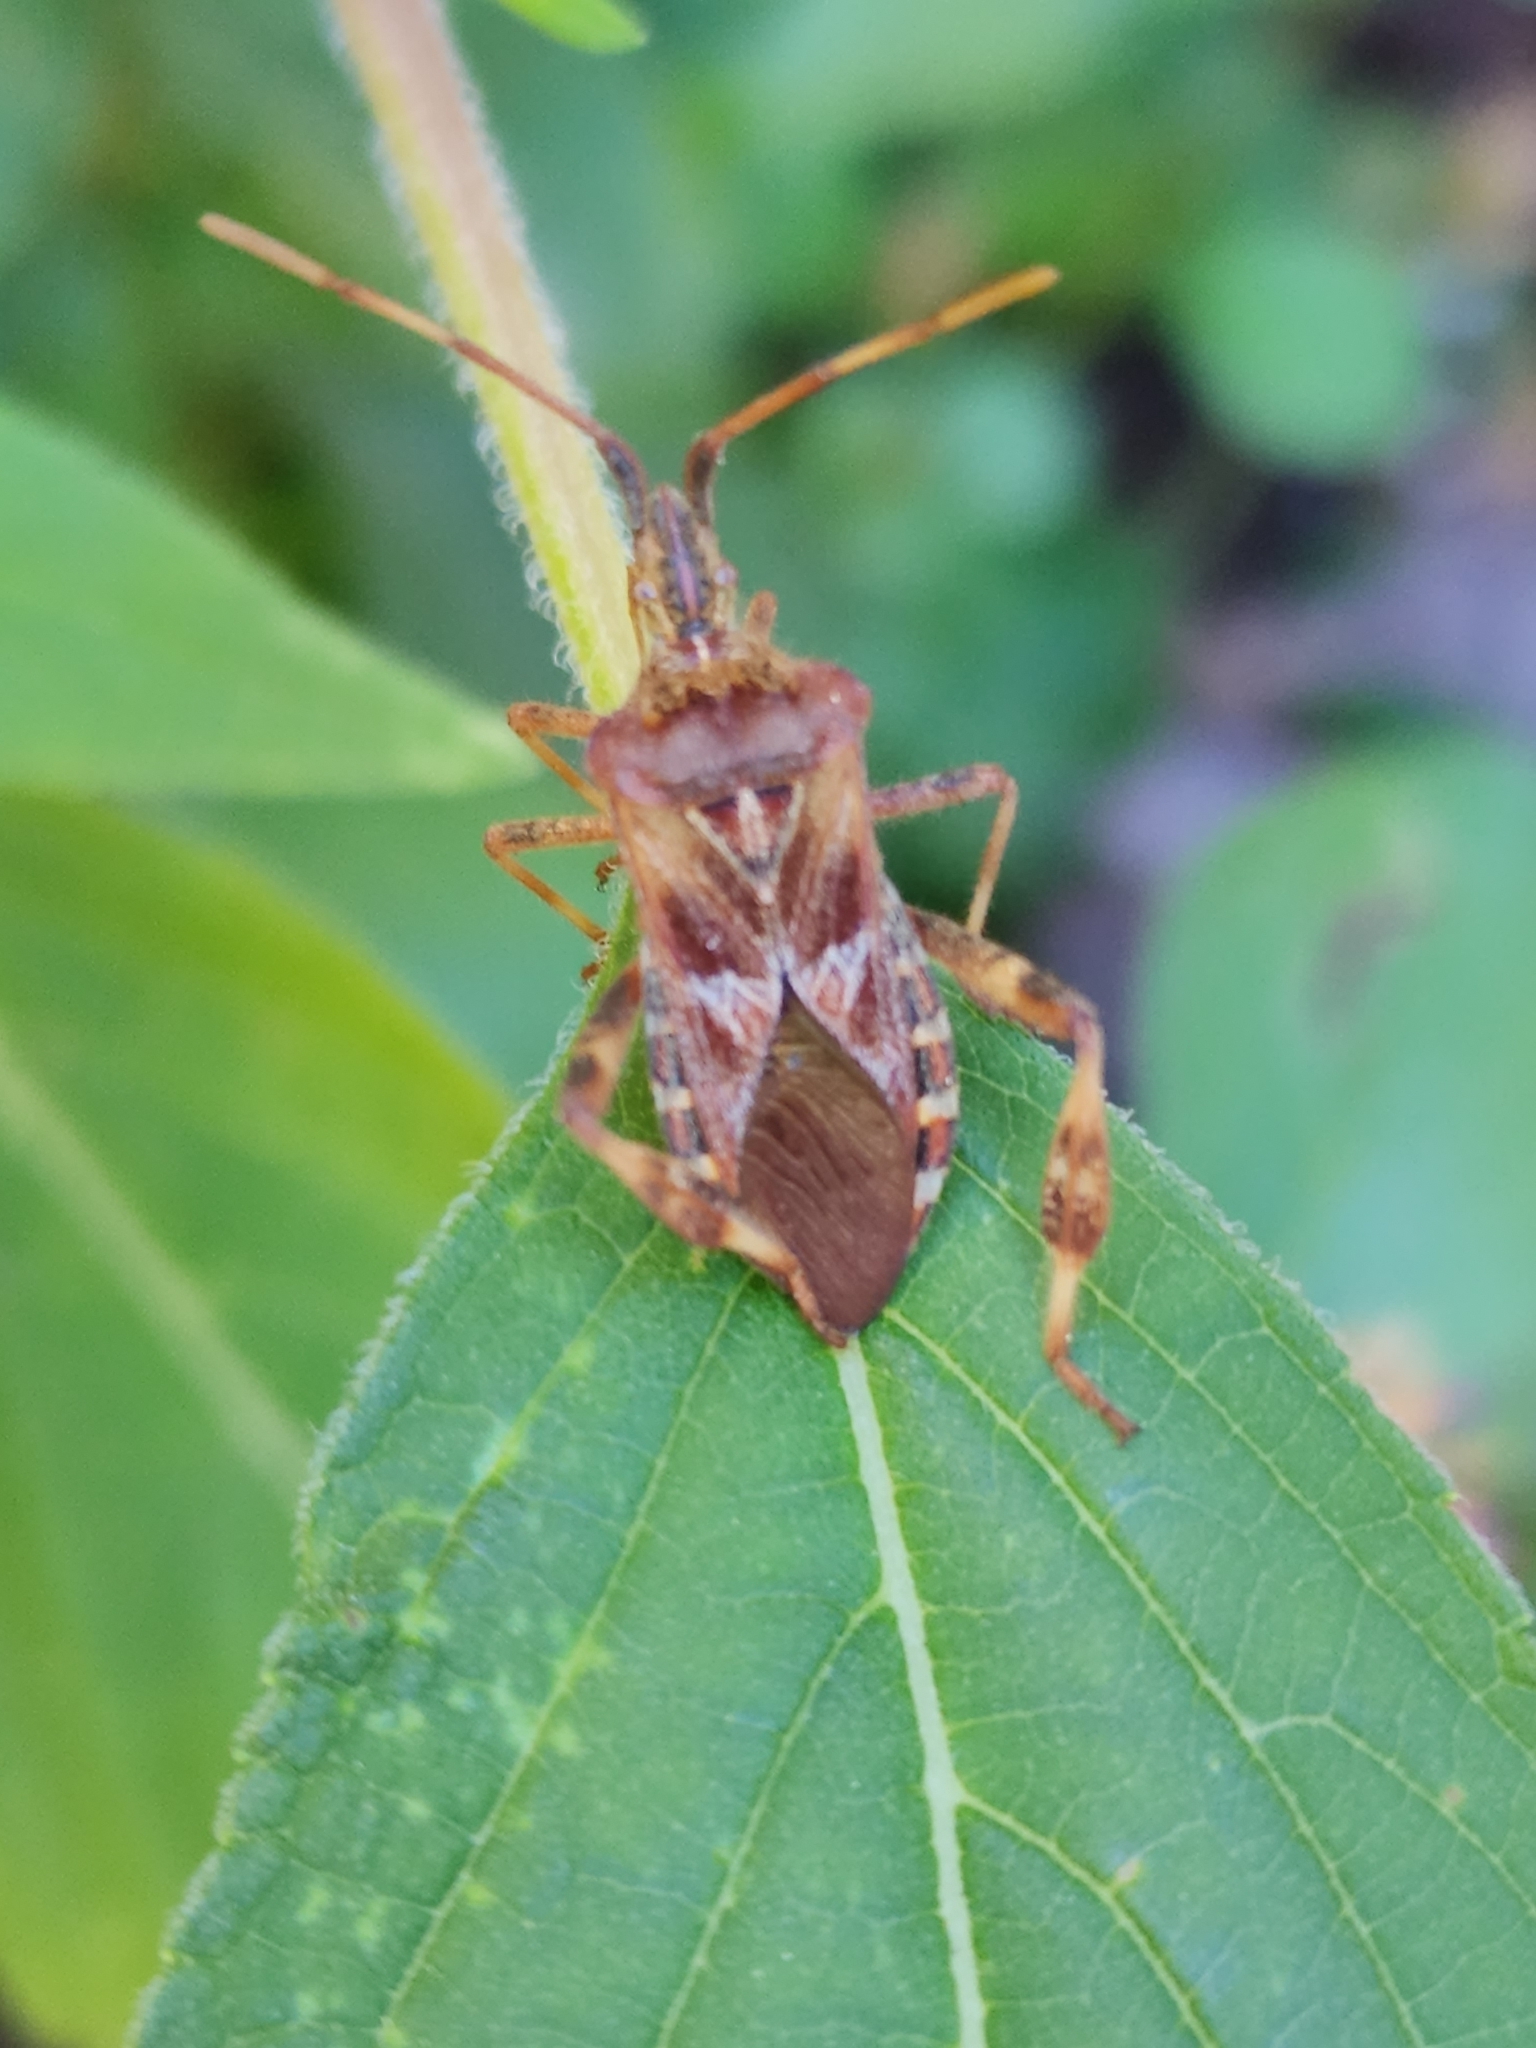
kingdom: Animalia
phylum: Arthropoda
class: Insecta
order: Hemiptera
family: Coreidae
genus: Leptoglossus
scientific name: Leptoglossus occidentalis
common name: Western conifer-seed bug
